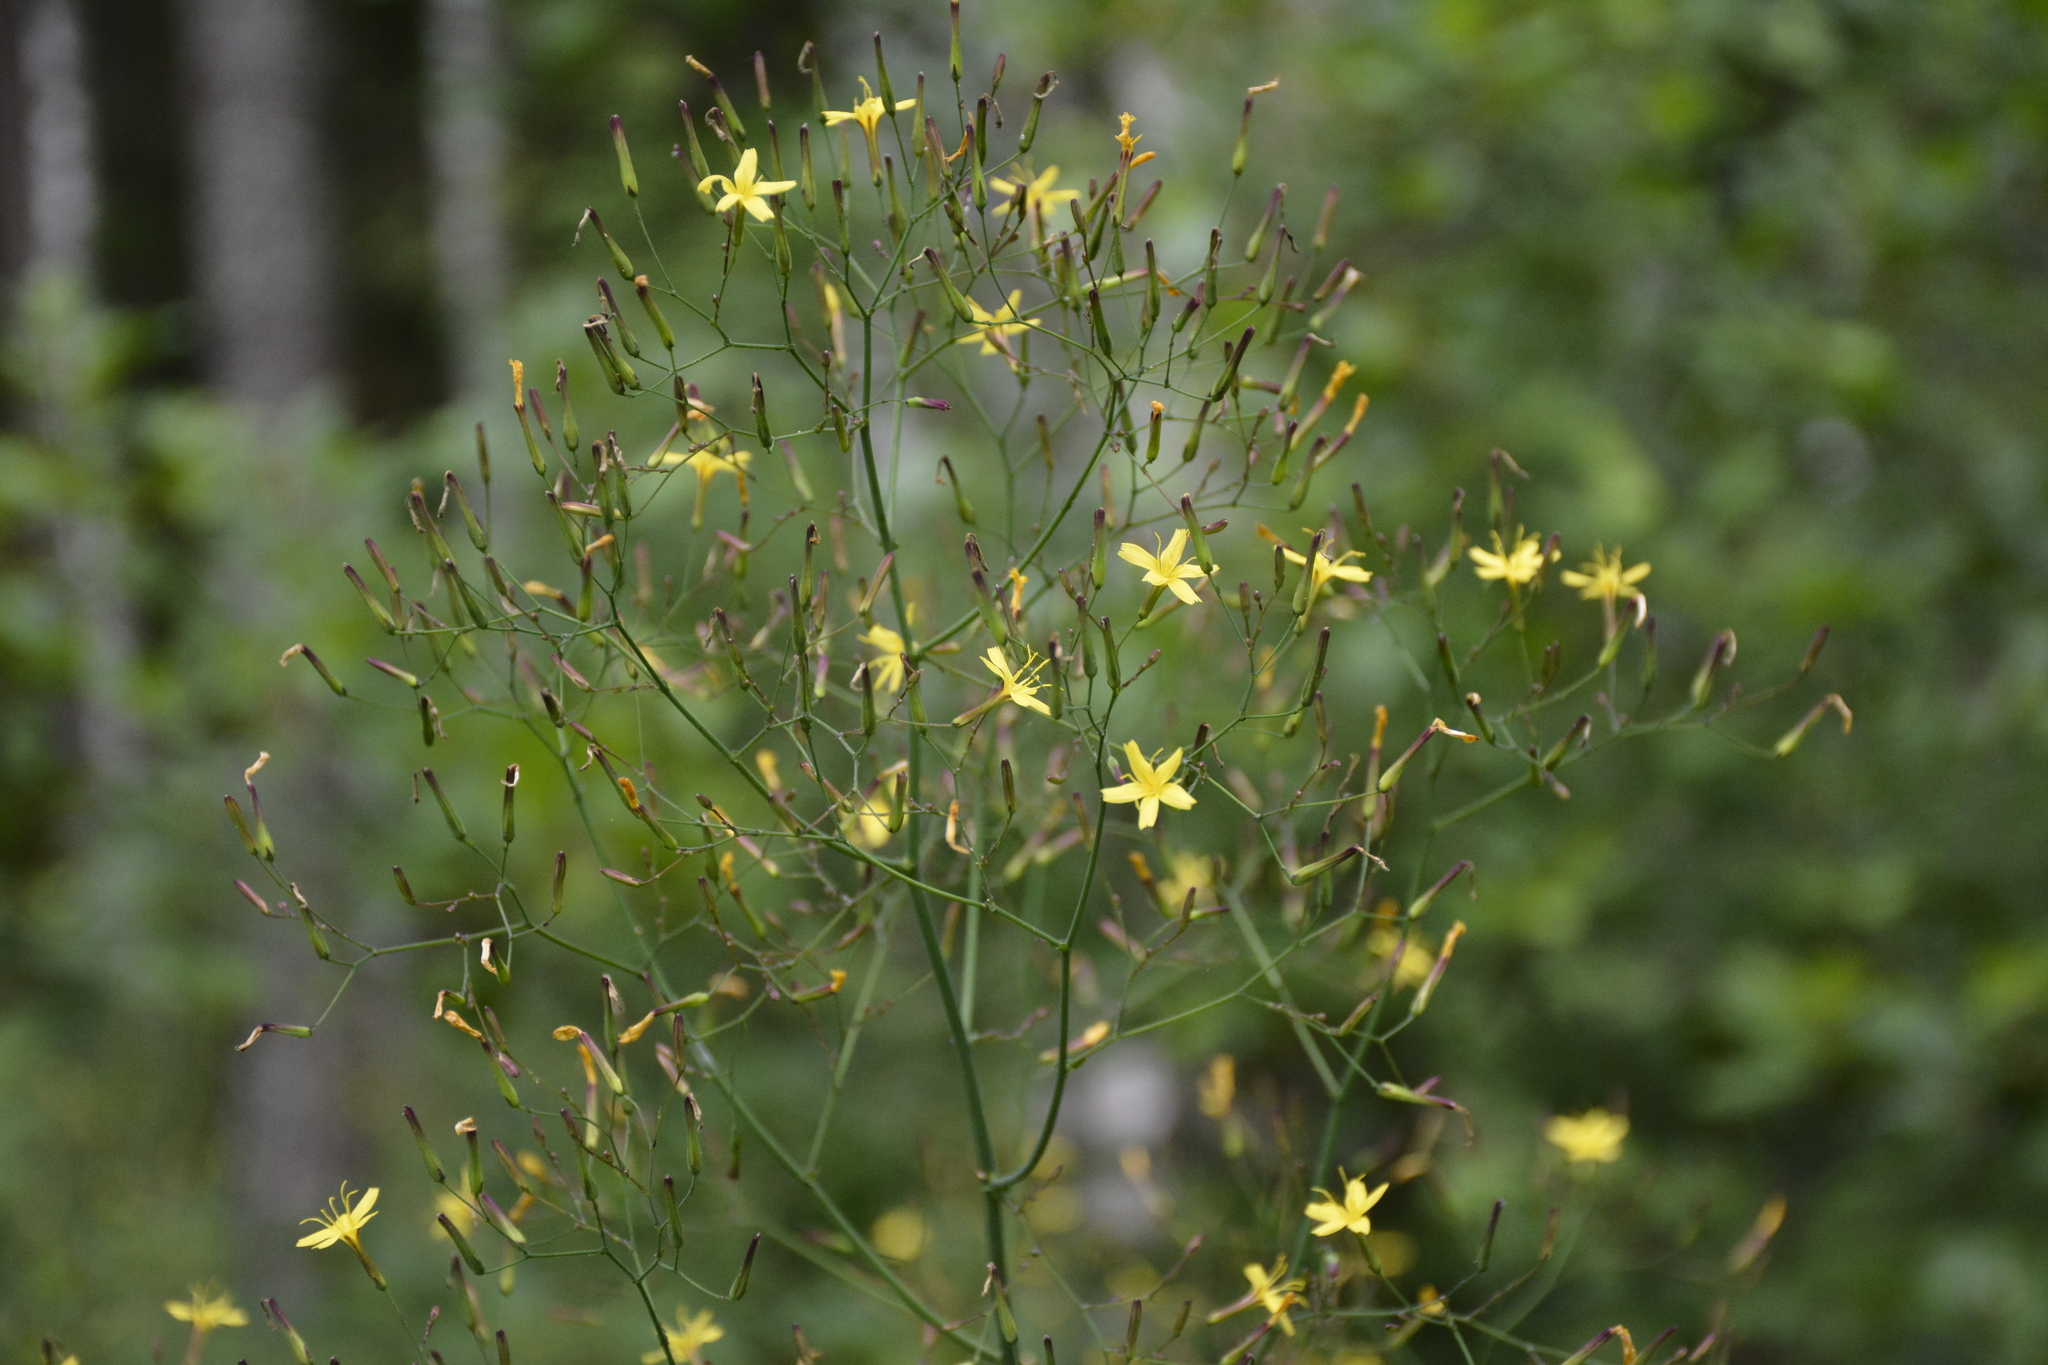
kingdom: Plantae
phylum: Tracheophyta
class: Magnoliopsida
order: Asterales
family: Asteraceae
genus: Mycelis
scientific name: Mycelis muralis
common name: Wall lettuce
